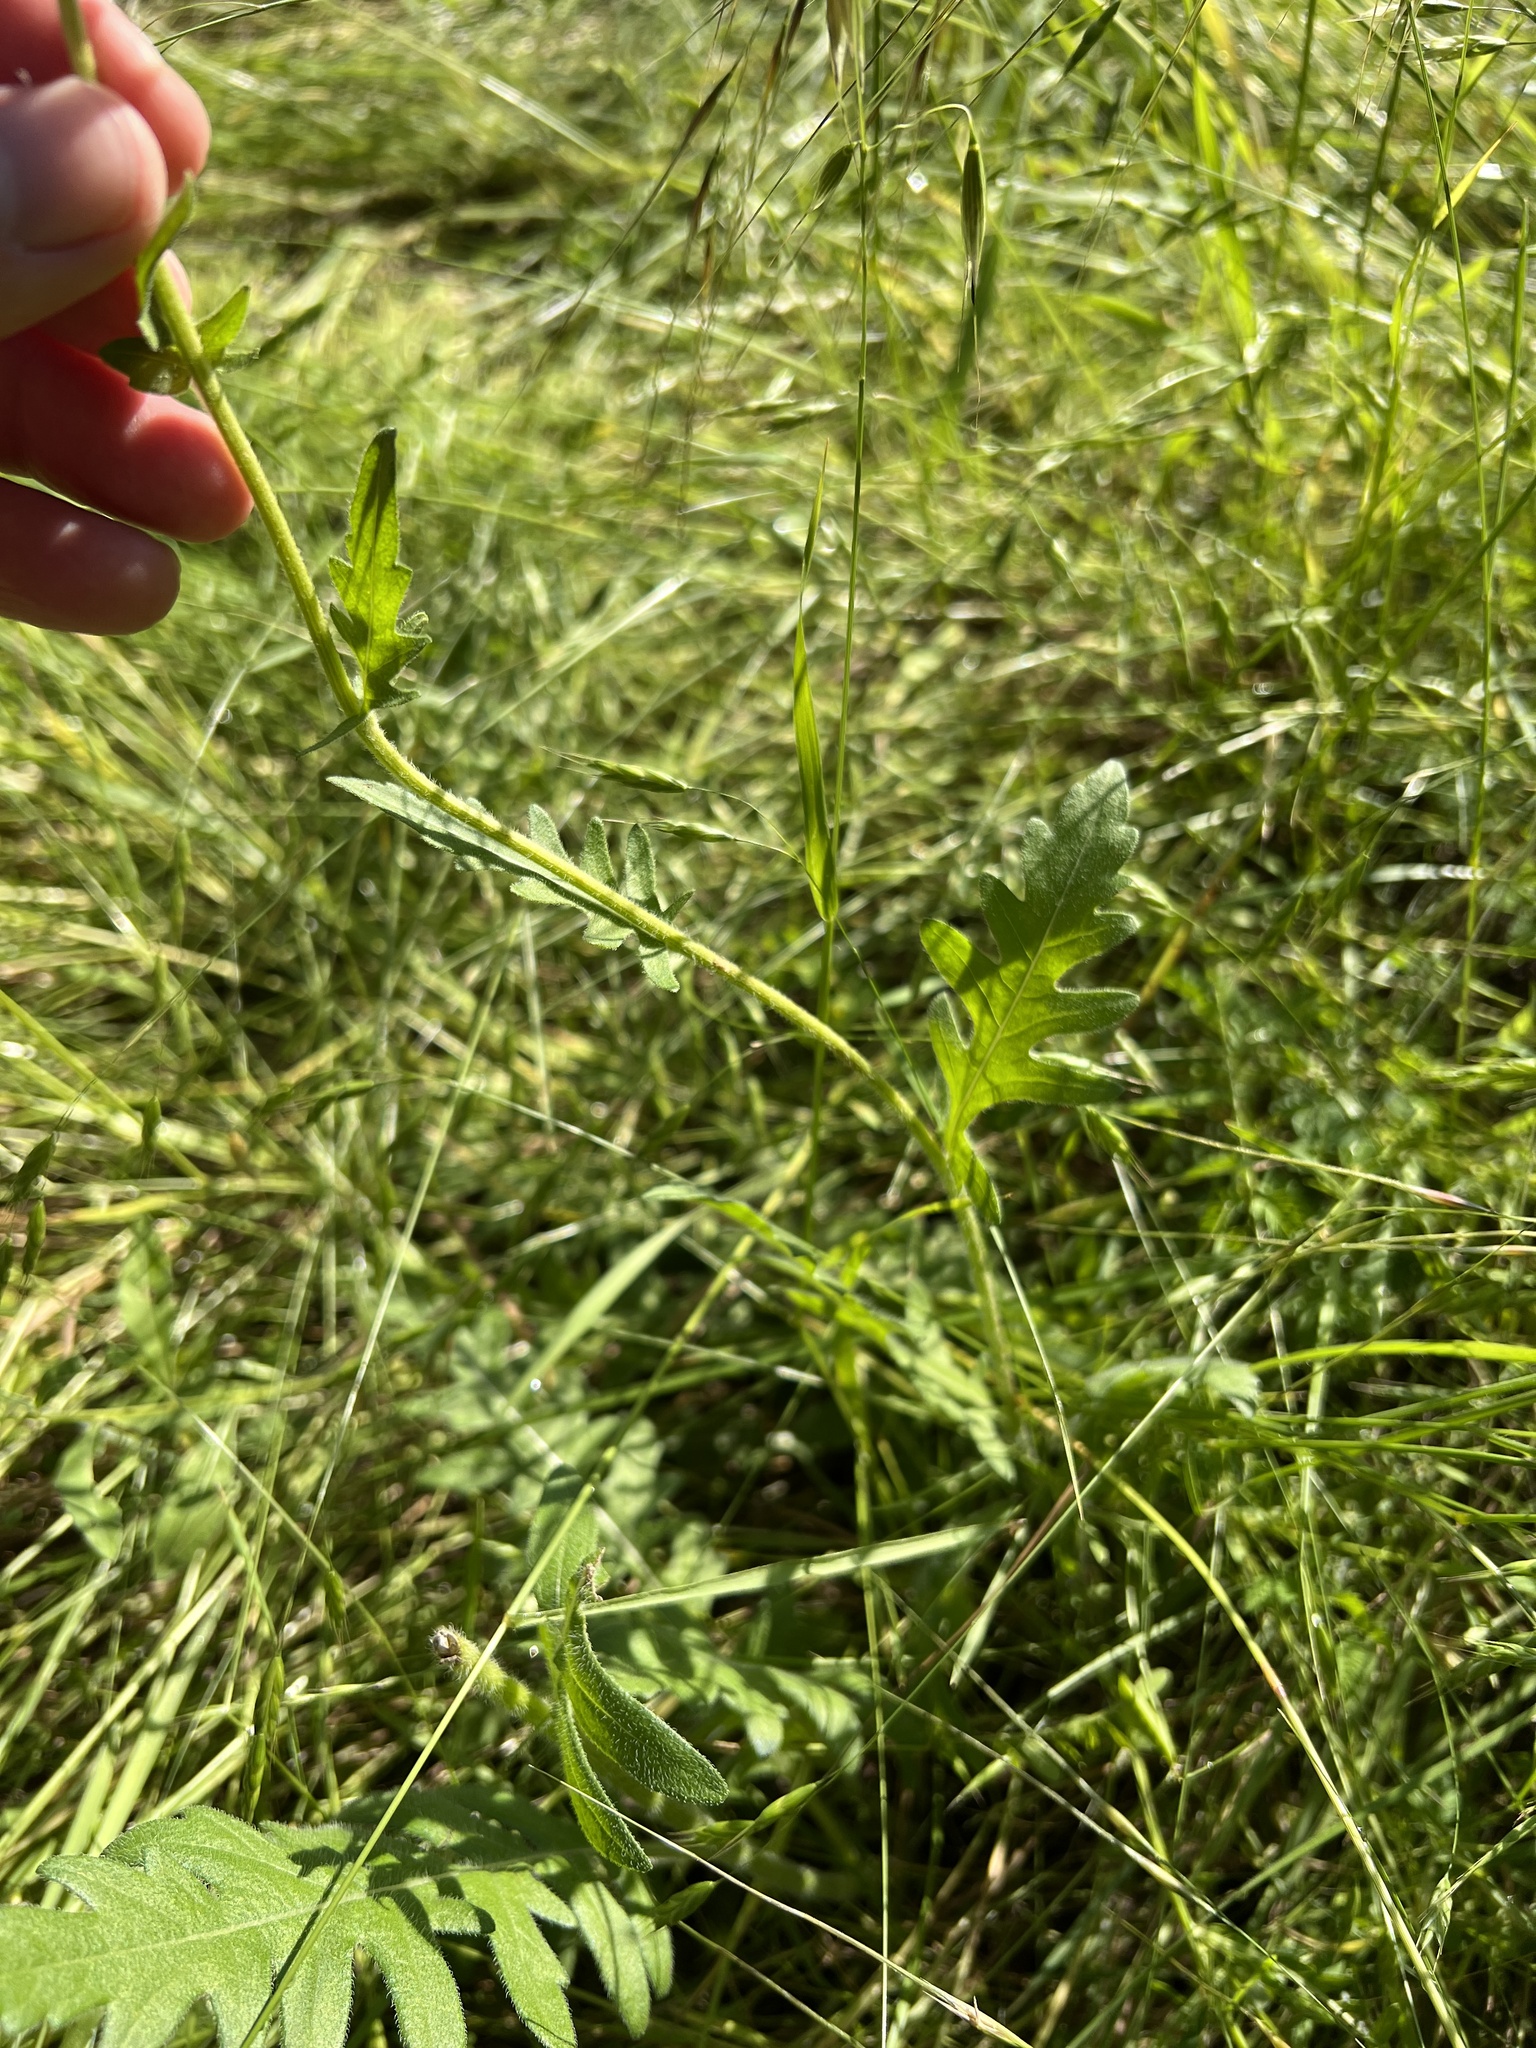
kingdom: Plantae
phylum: Tracheophyta
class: Magnoliopsida
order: Asterales
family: Asteraceae
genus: Engelmannia
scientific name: Engelmannia peristenia
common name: Engelmann's daisy
